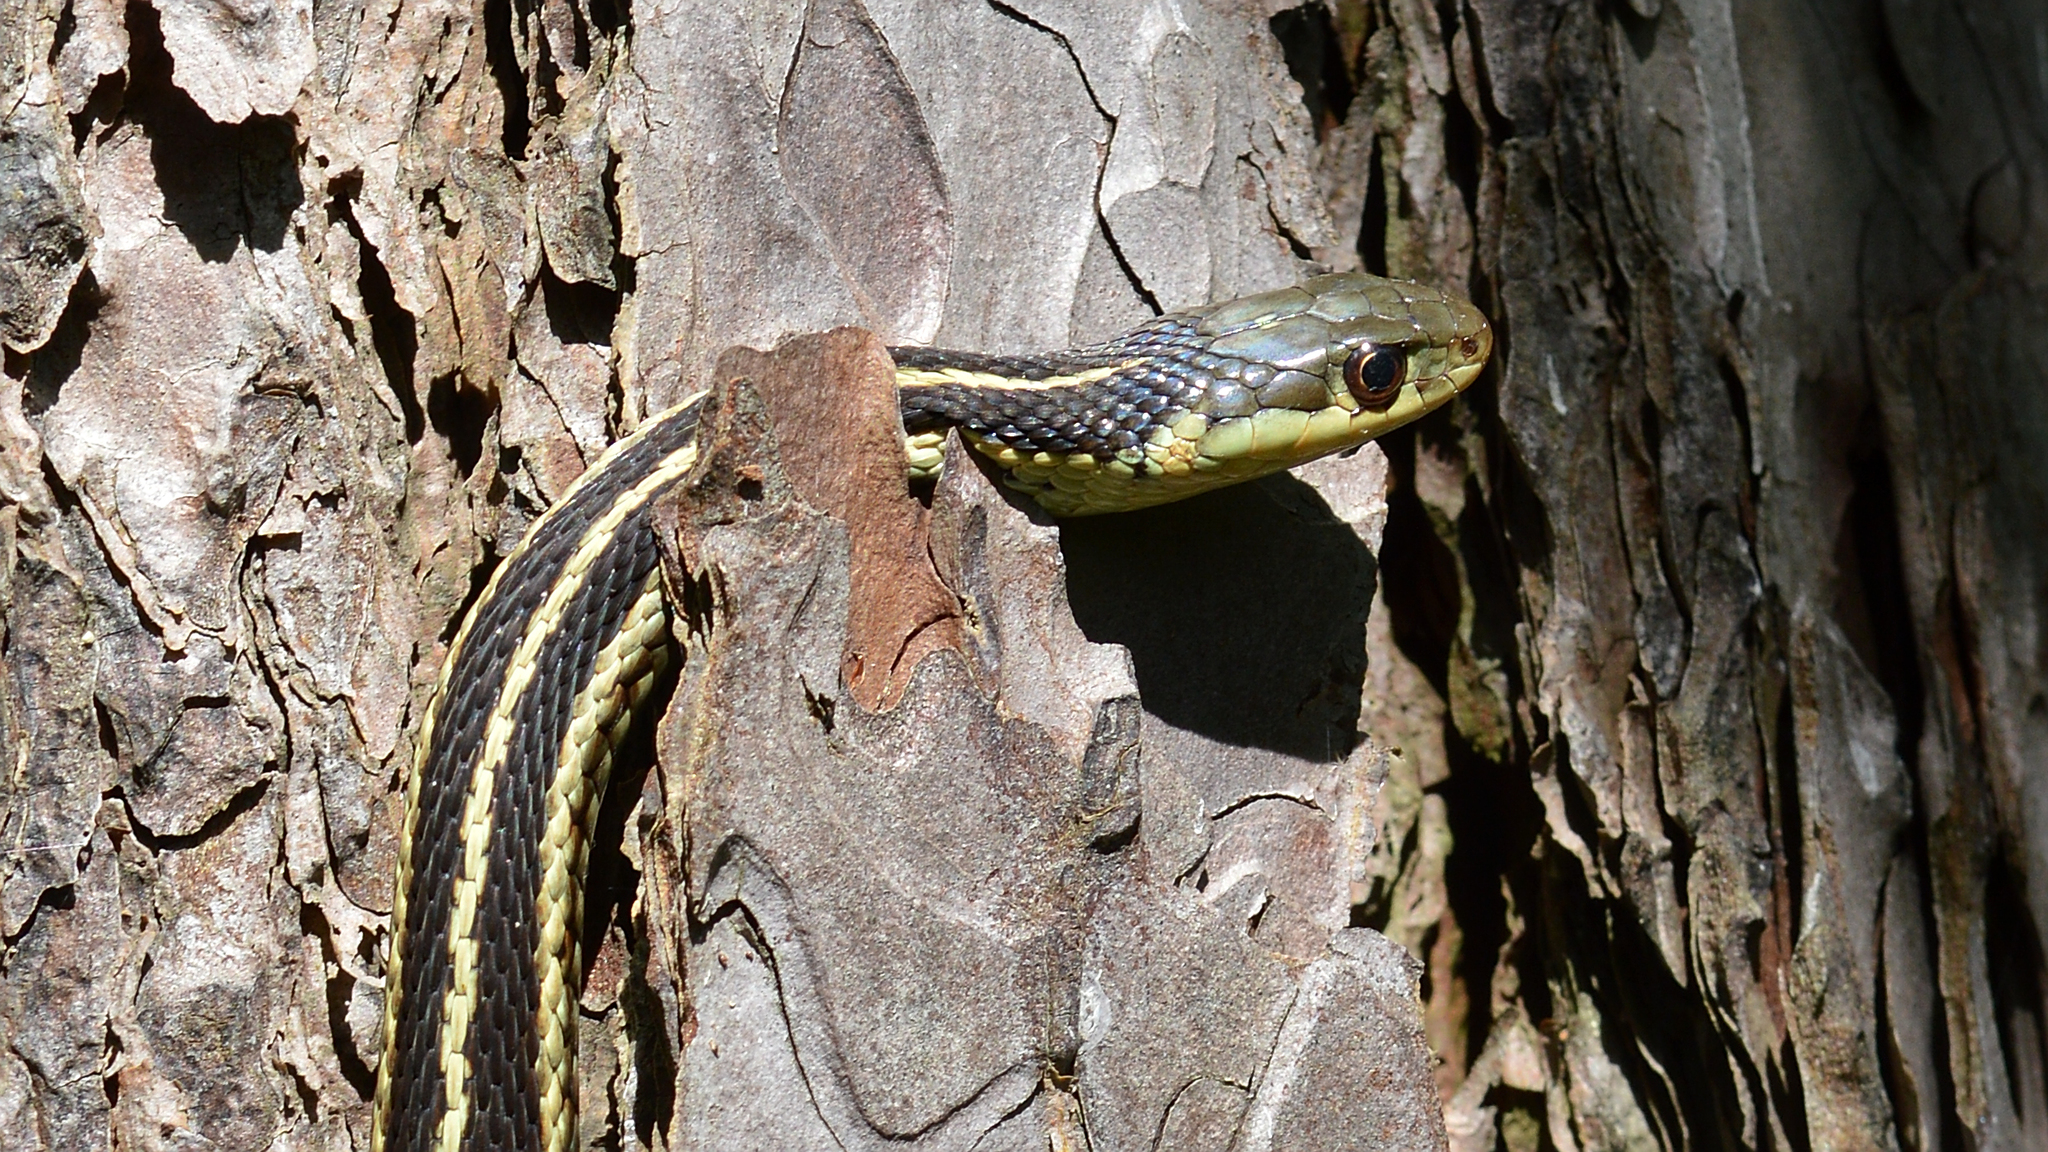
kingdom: Animalia
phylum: Chordata
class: Squamata
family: Colubridae
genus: Thamnophis
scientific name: Thamnophis sirtalis
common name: Common garter snake
